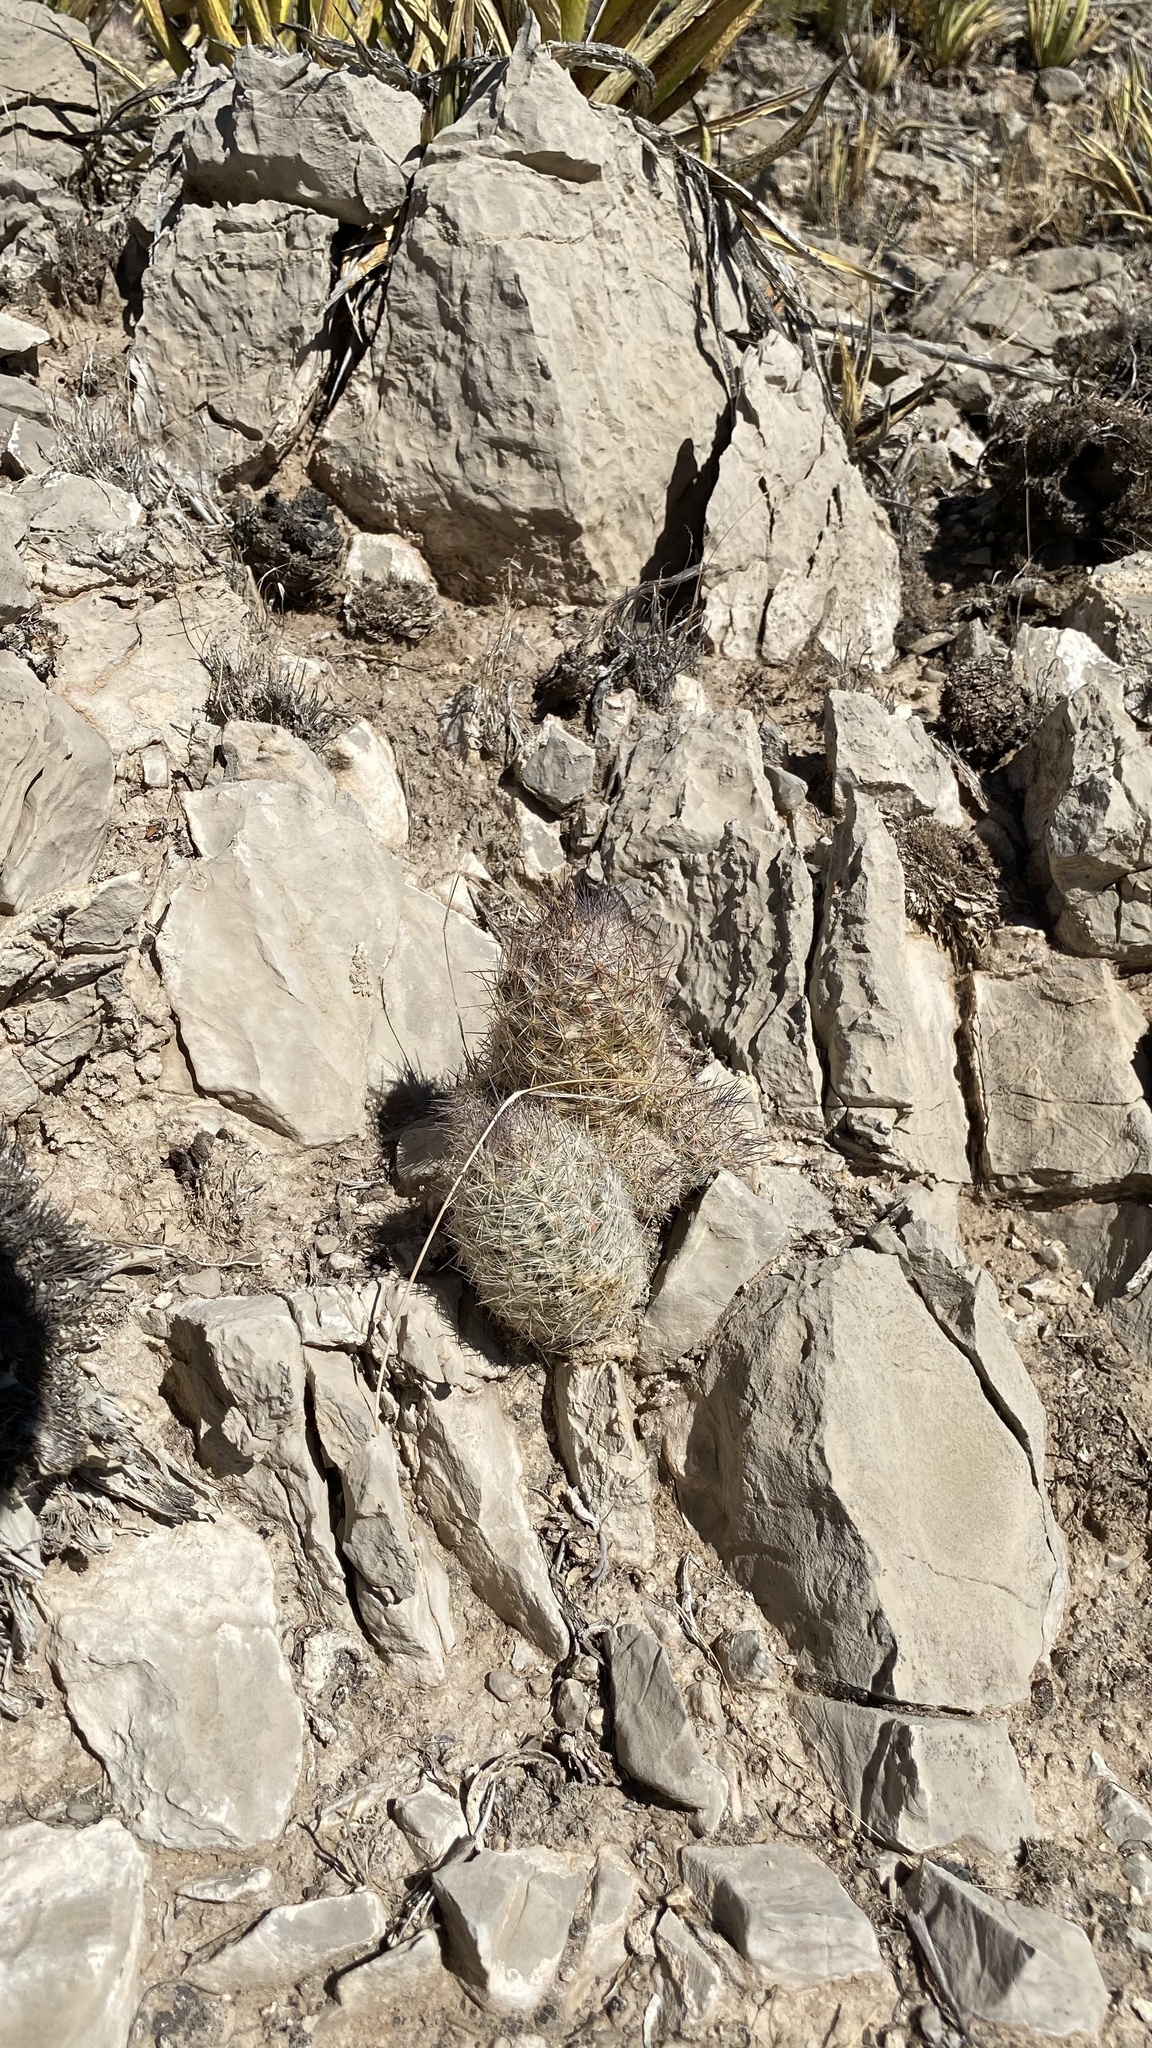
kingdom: Plantae
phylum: Tracheophyta
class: Magnoliopsida
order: Caryophyllales
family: Cactaceae
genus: Pelecyphora
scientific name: Pelecyphora tuberculosa
